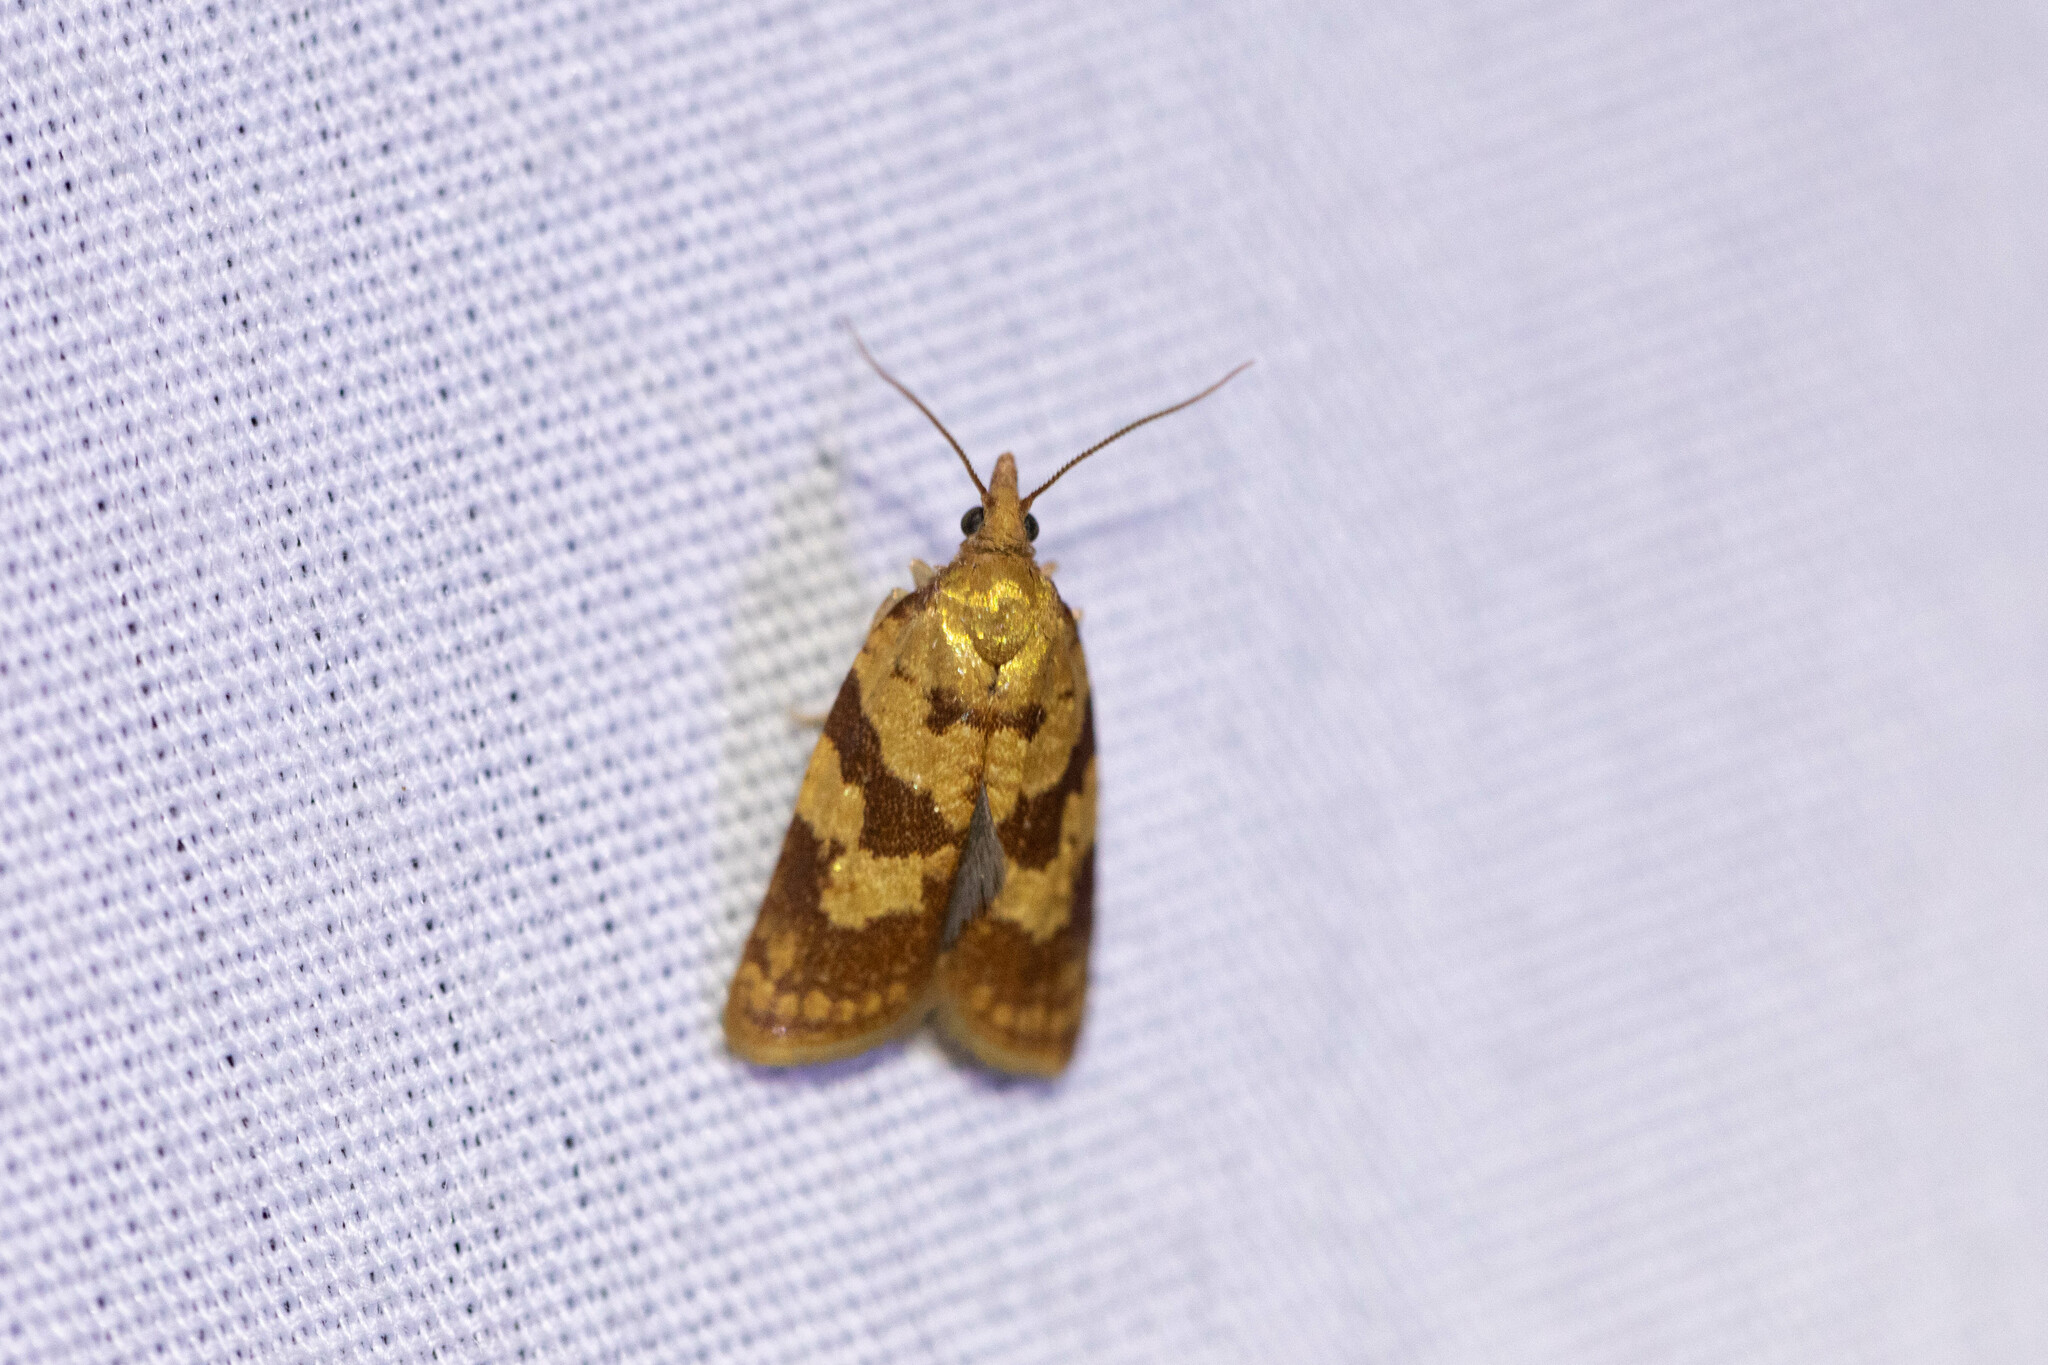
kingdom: Animalia
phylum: Arthropoda
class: Insecta
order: Lepidoptera
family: Tortricidae
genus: Sparganothis
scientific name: Sparganothis senecionana
